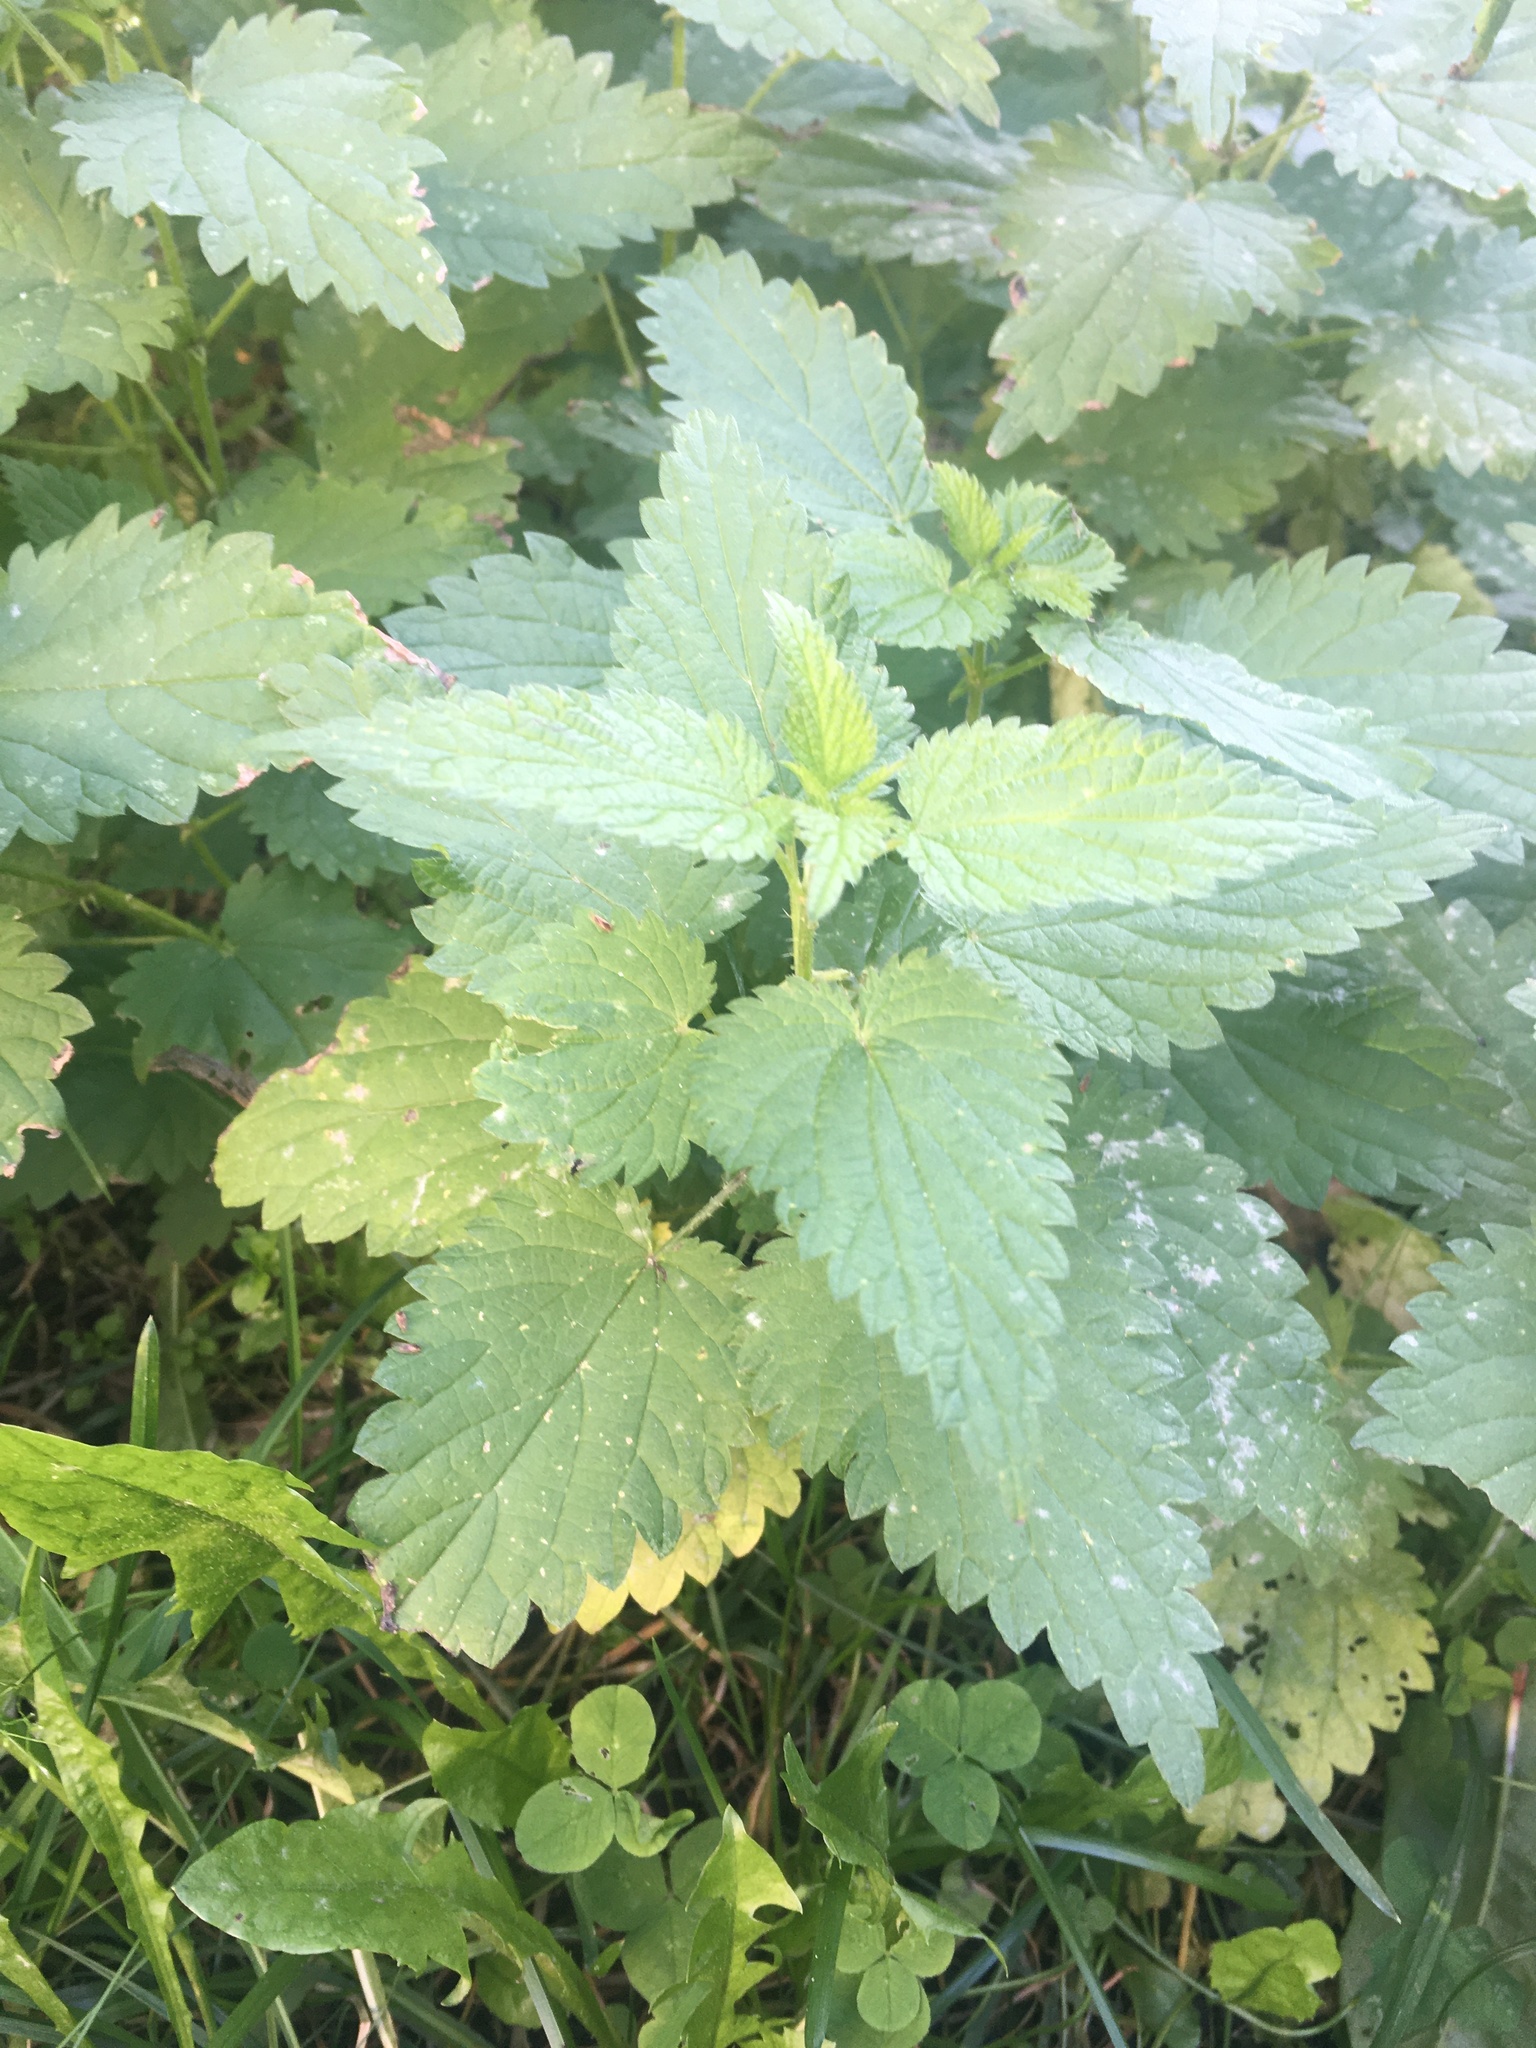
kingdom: Plantae
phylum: Tracheophyta
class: Magnoliopsida
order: Rosales
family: Urticaceae
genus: Urtica
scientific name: Urtica dioica
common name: Common nettle
